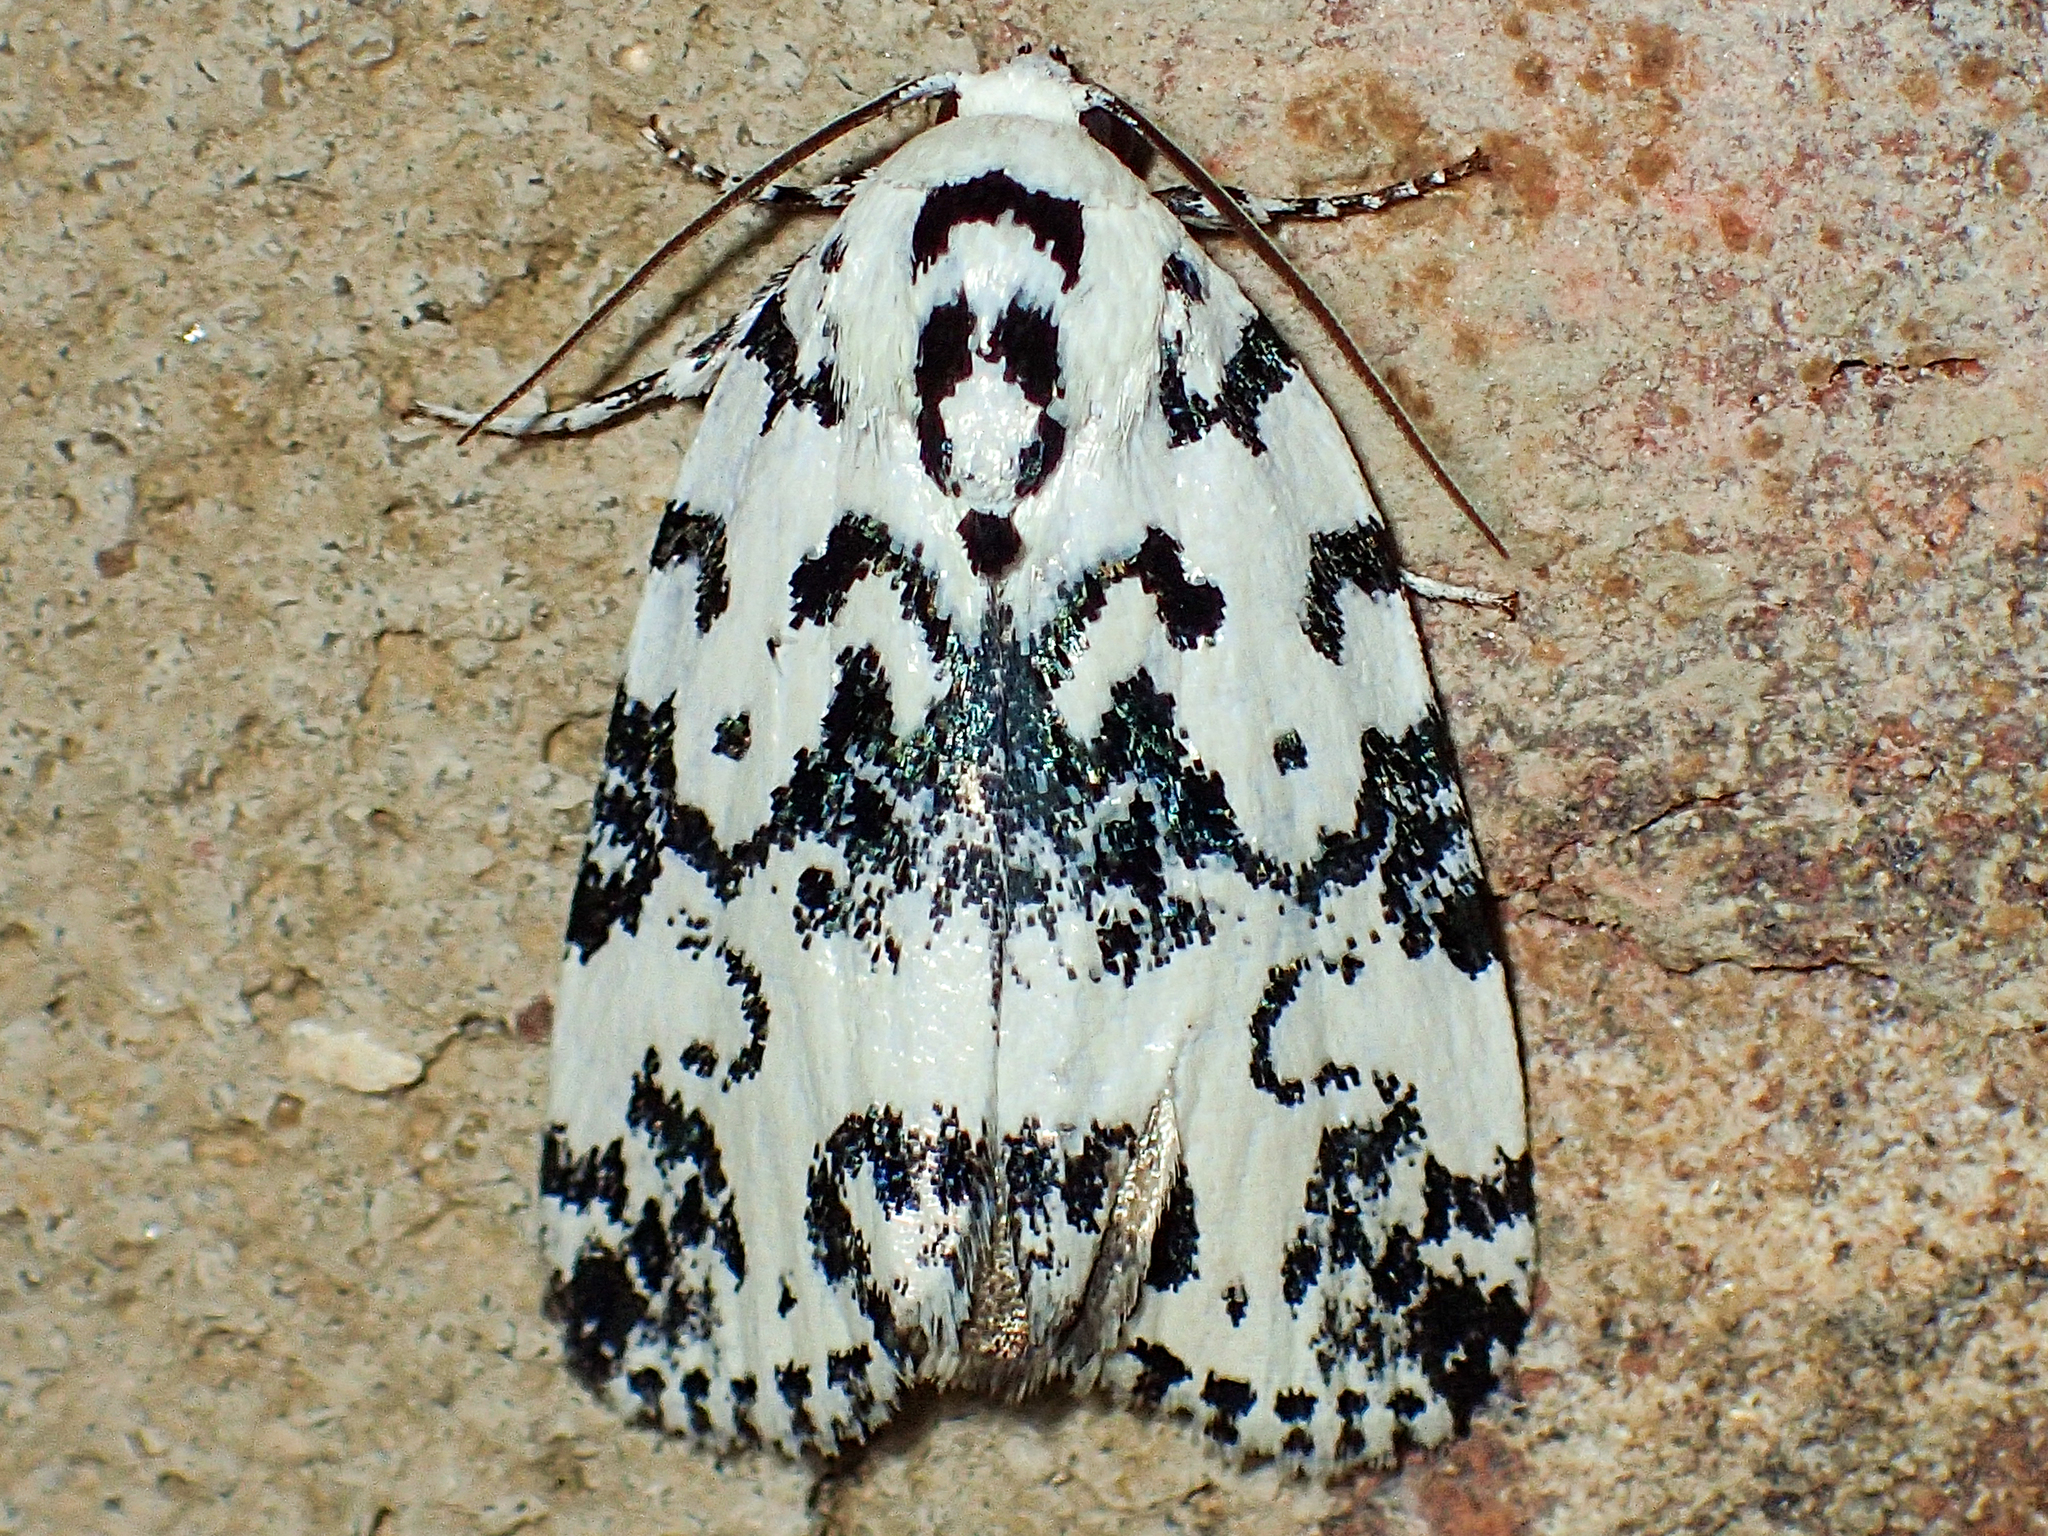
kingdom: Animalia
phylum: Arthropoda
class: Insecta
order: Lepidoptera
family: Noctuidae
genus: Polygrammate
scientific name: Polygrammate hebraeicum
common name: Hebrew moth
